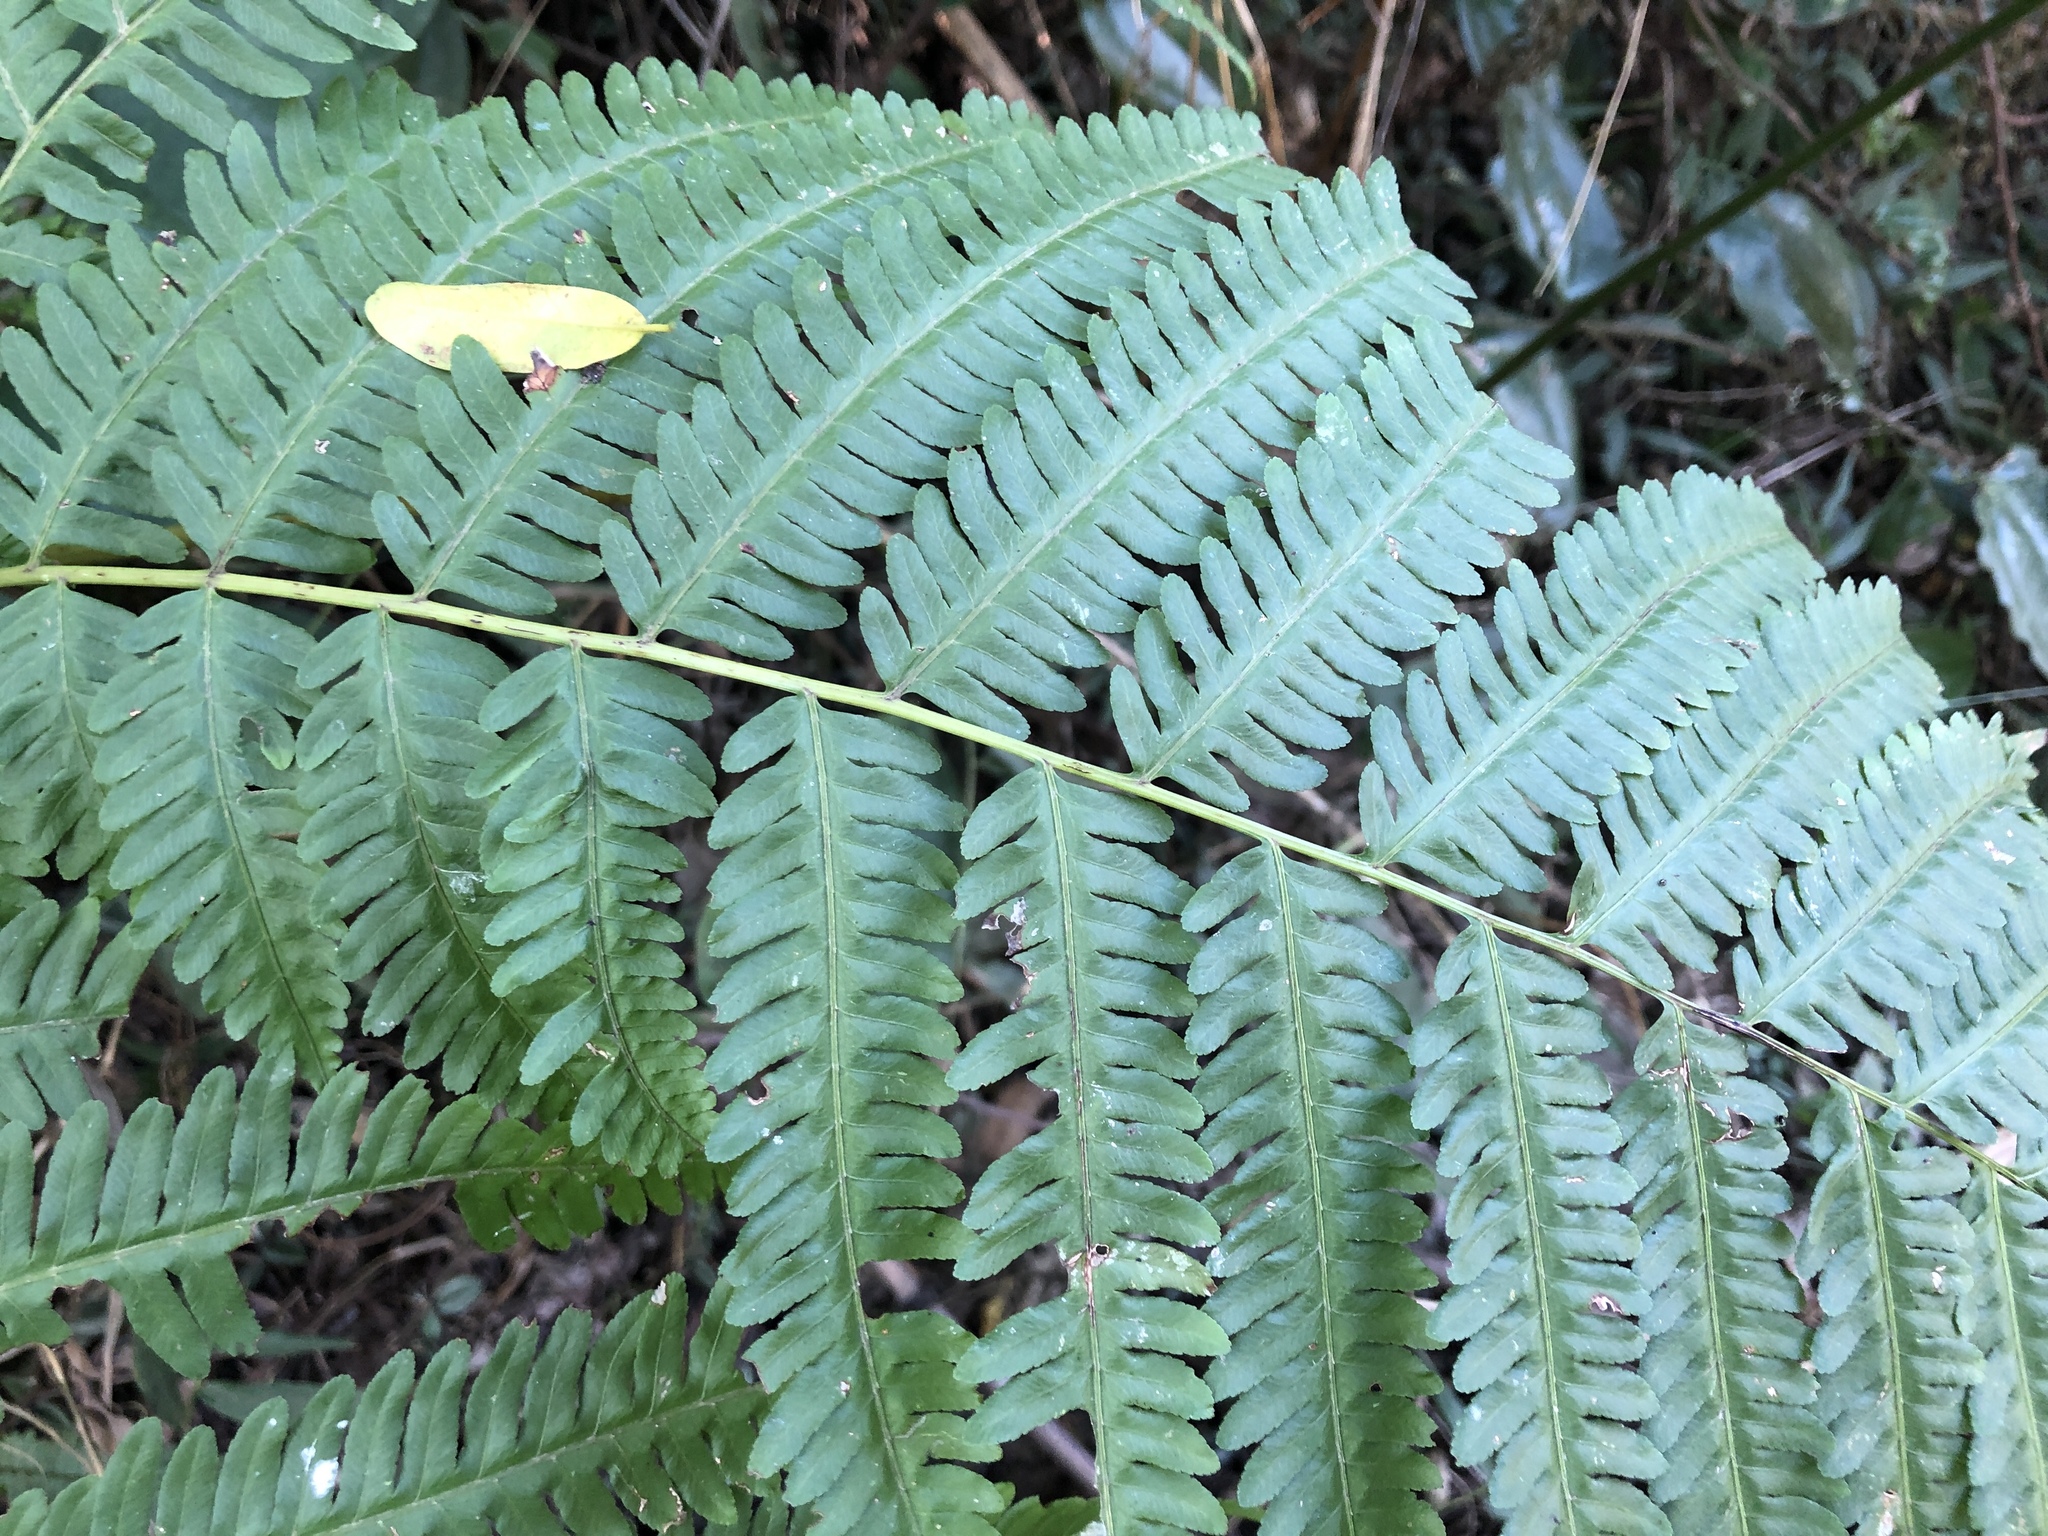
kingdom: Plantae
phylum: Tracheophyta
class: Polypodiopsida
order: Polypodiales
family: Pteridaceae
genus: Pteris
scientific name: Pteris wallichiana
